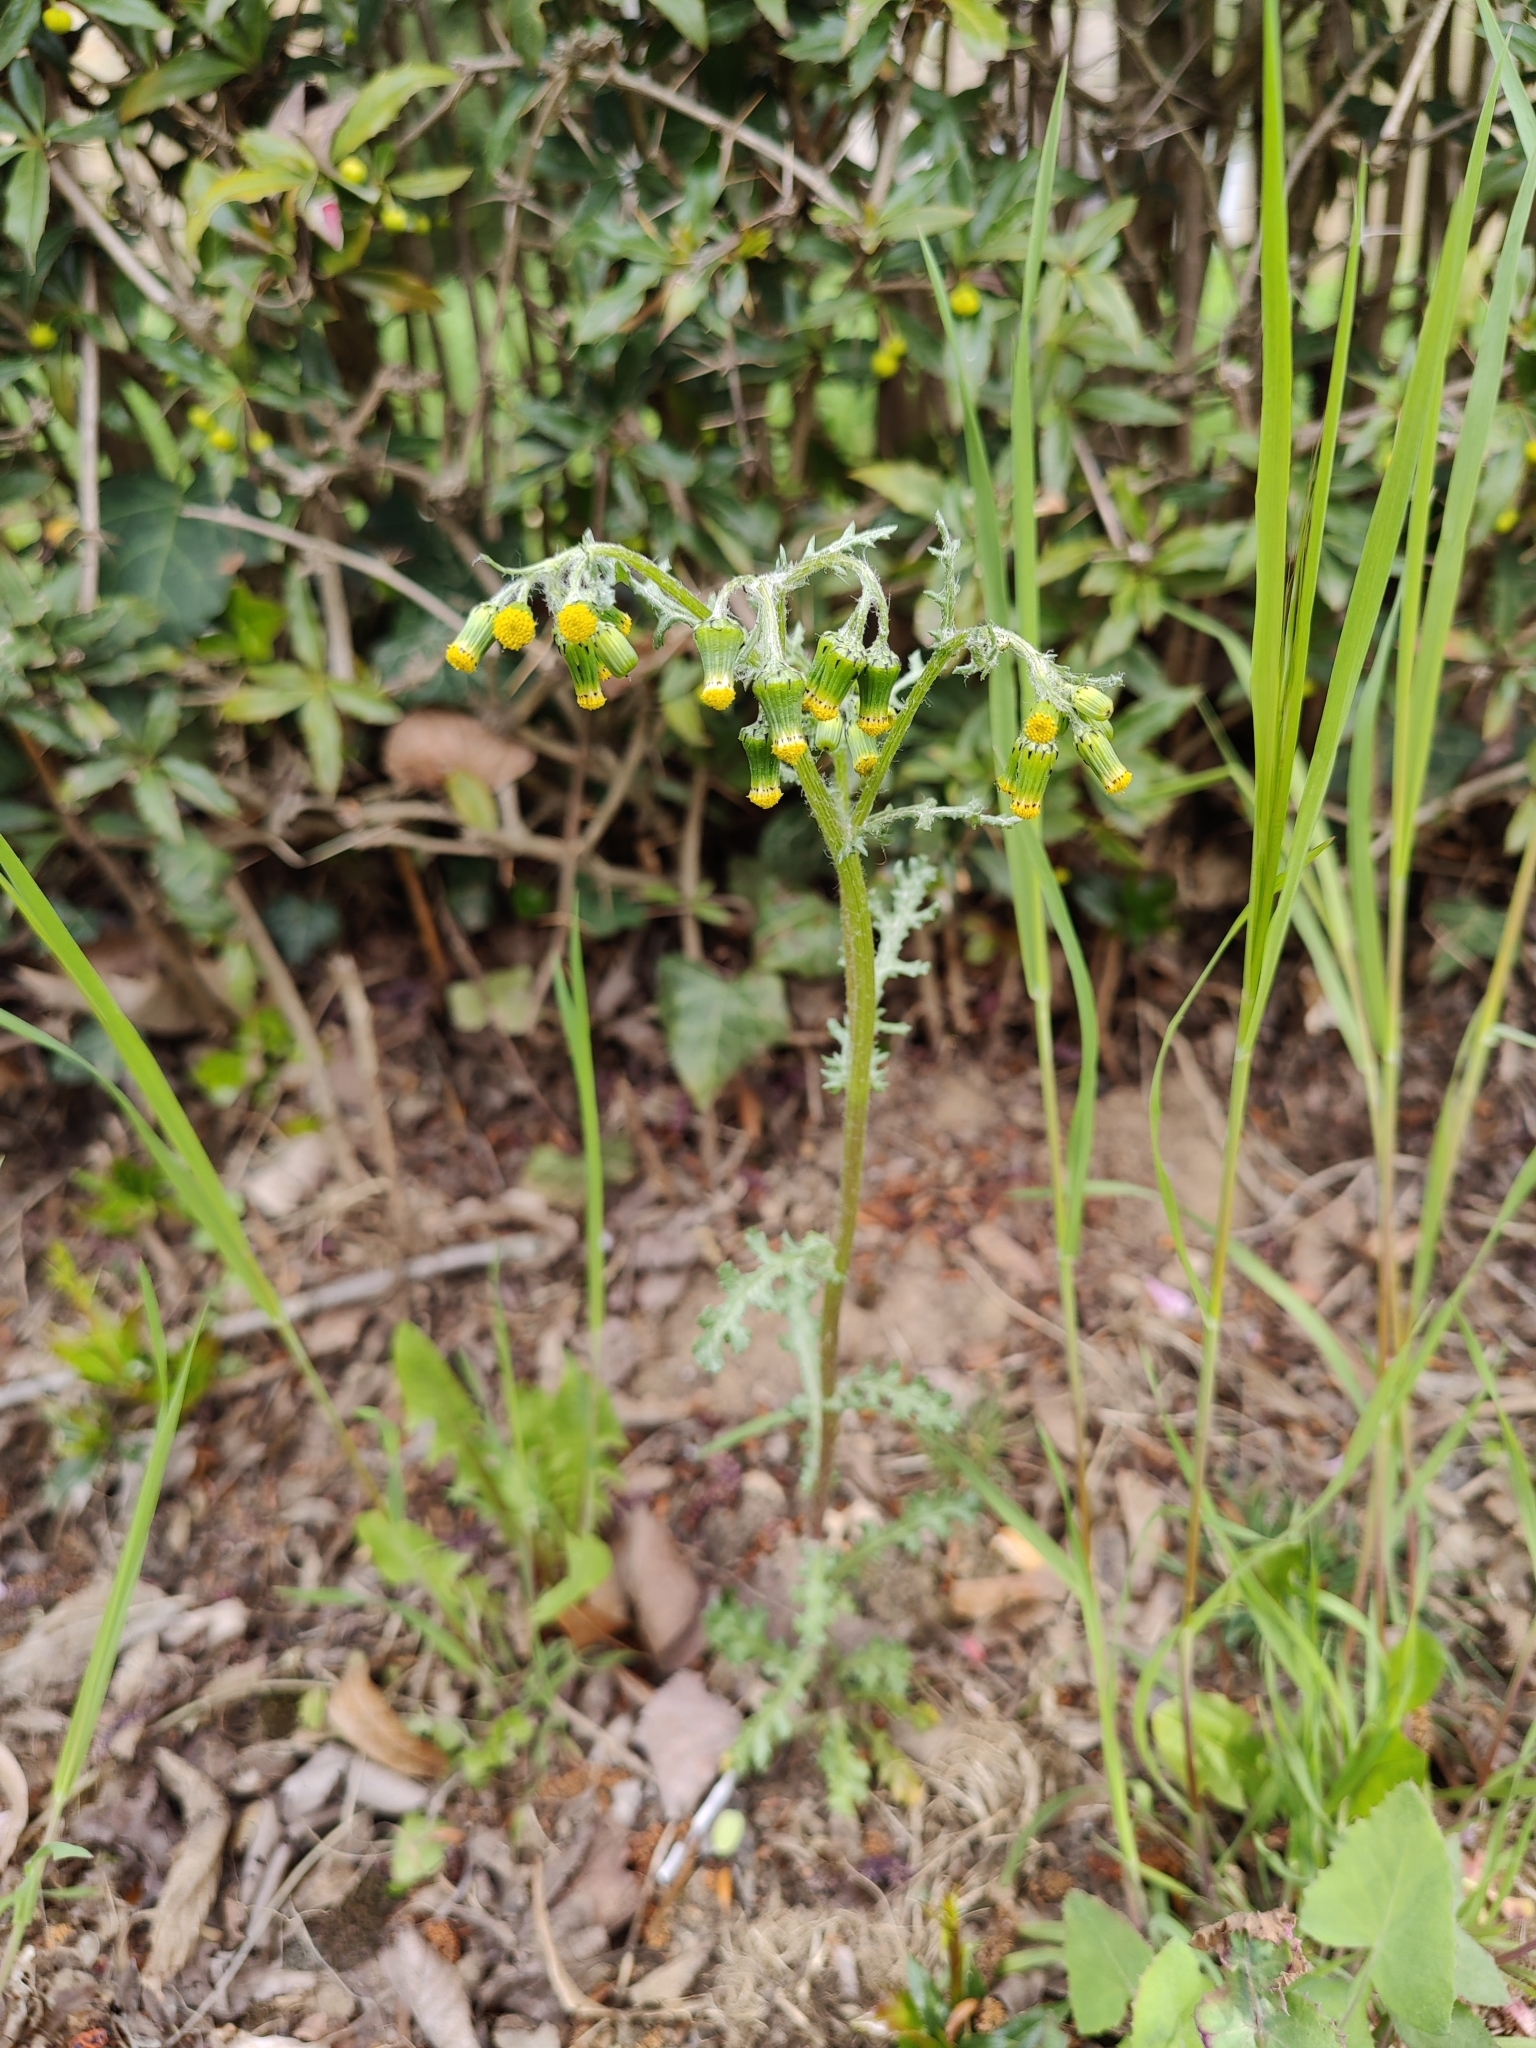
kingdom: Plantae
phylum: Tracheophyta
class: Magnoliopsida
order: Asterales
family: Asteraceae
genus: Senecio
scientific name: Senecio vulgaris
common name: Old-man-in-the-spring
